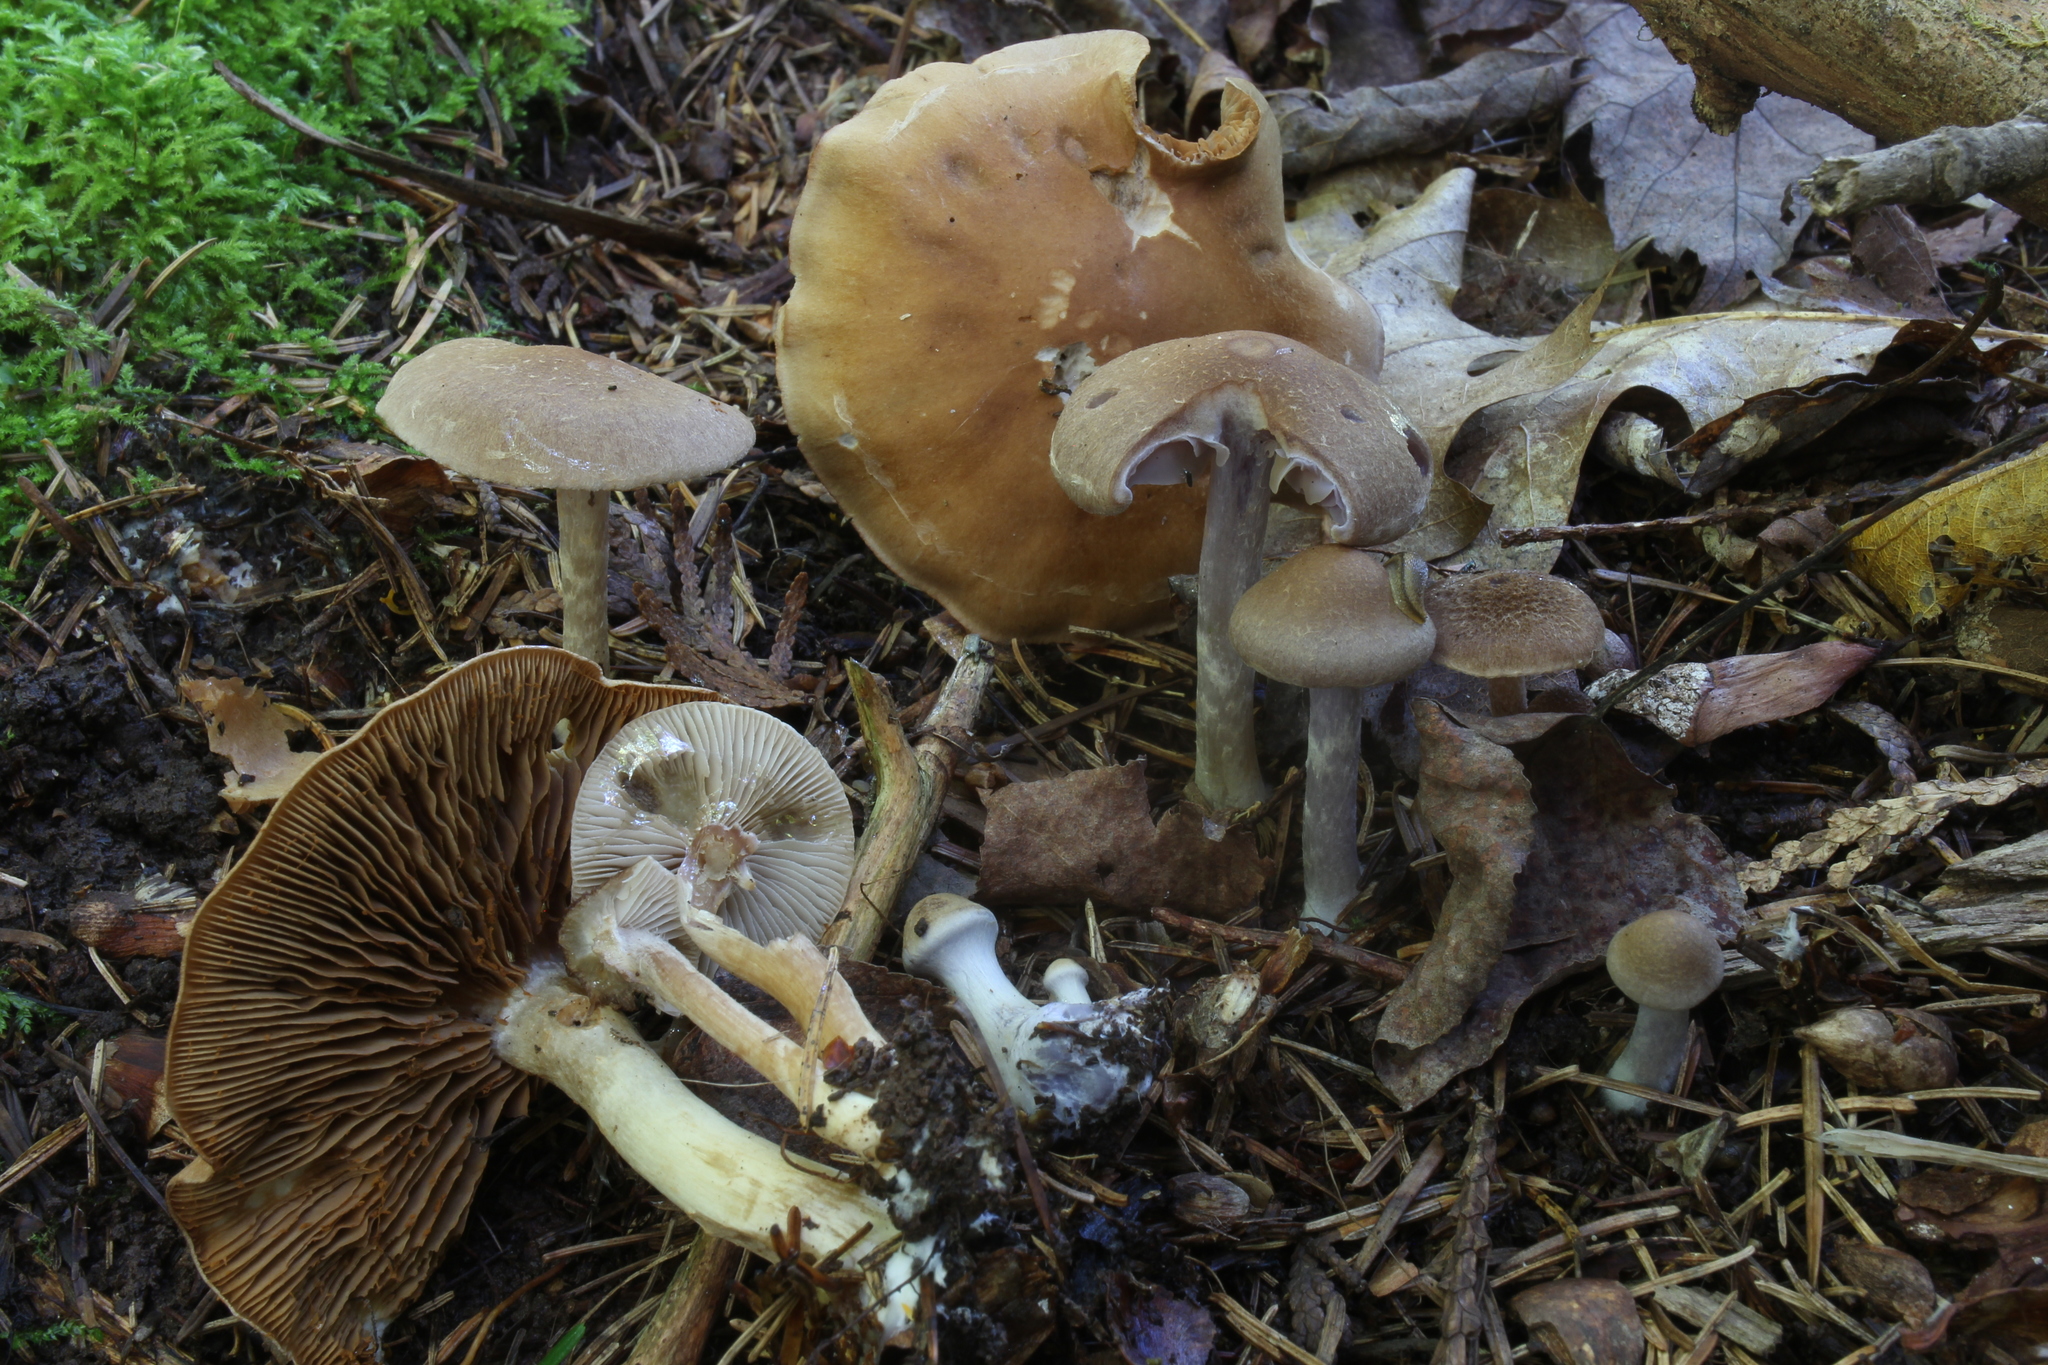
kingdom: Fungi
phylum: Basidiomycota
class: Agaricomycetes
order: Agaricales
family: Cortinariaceae
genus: Cortinarius
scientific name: Cortinarius anomalus
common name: Variable webcap
